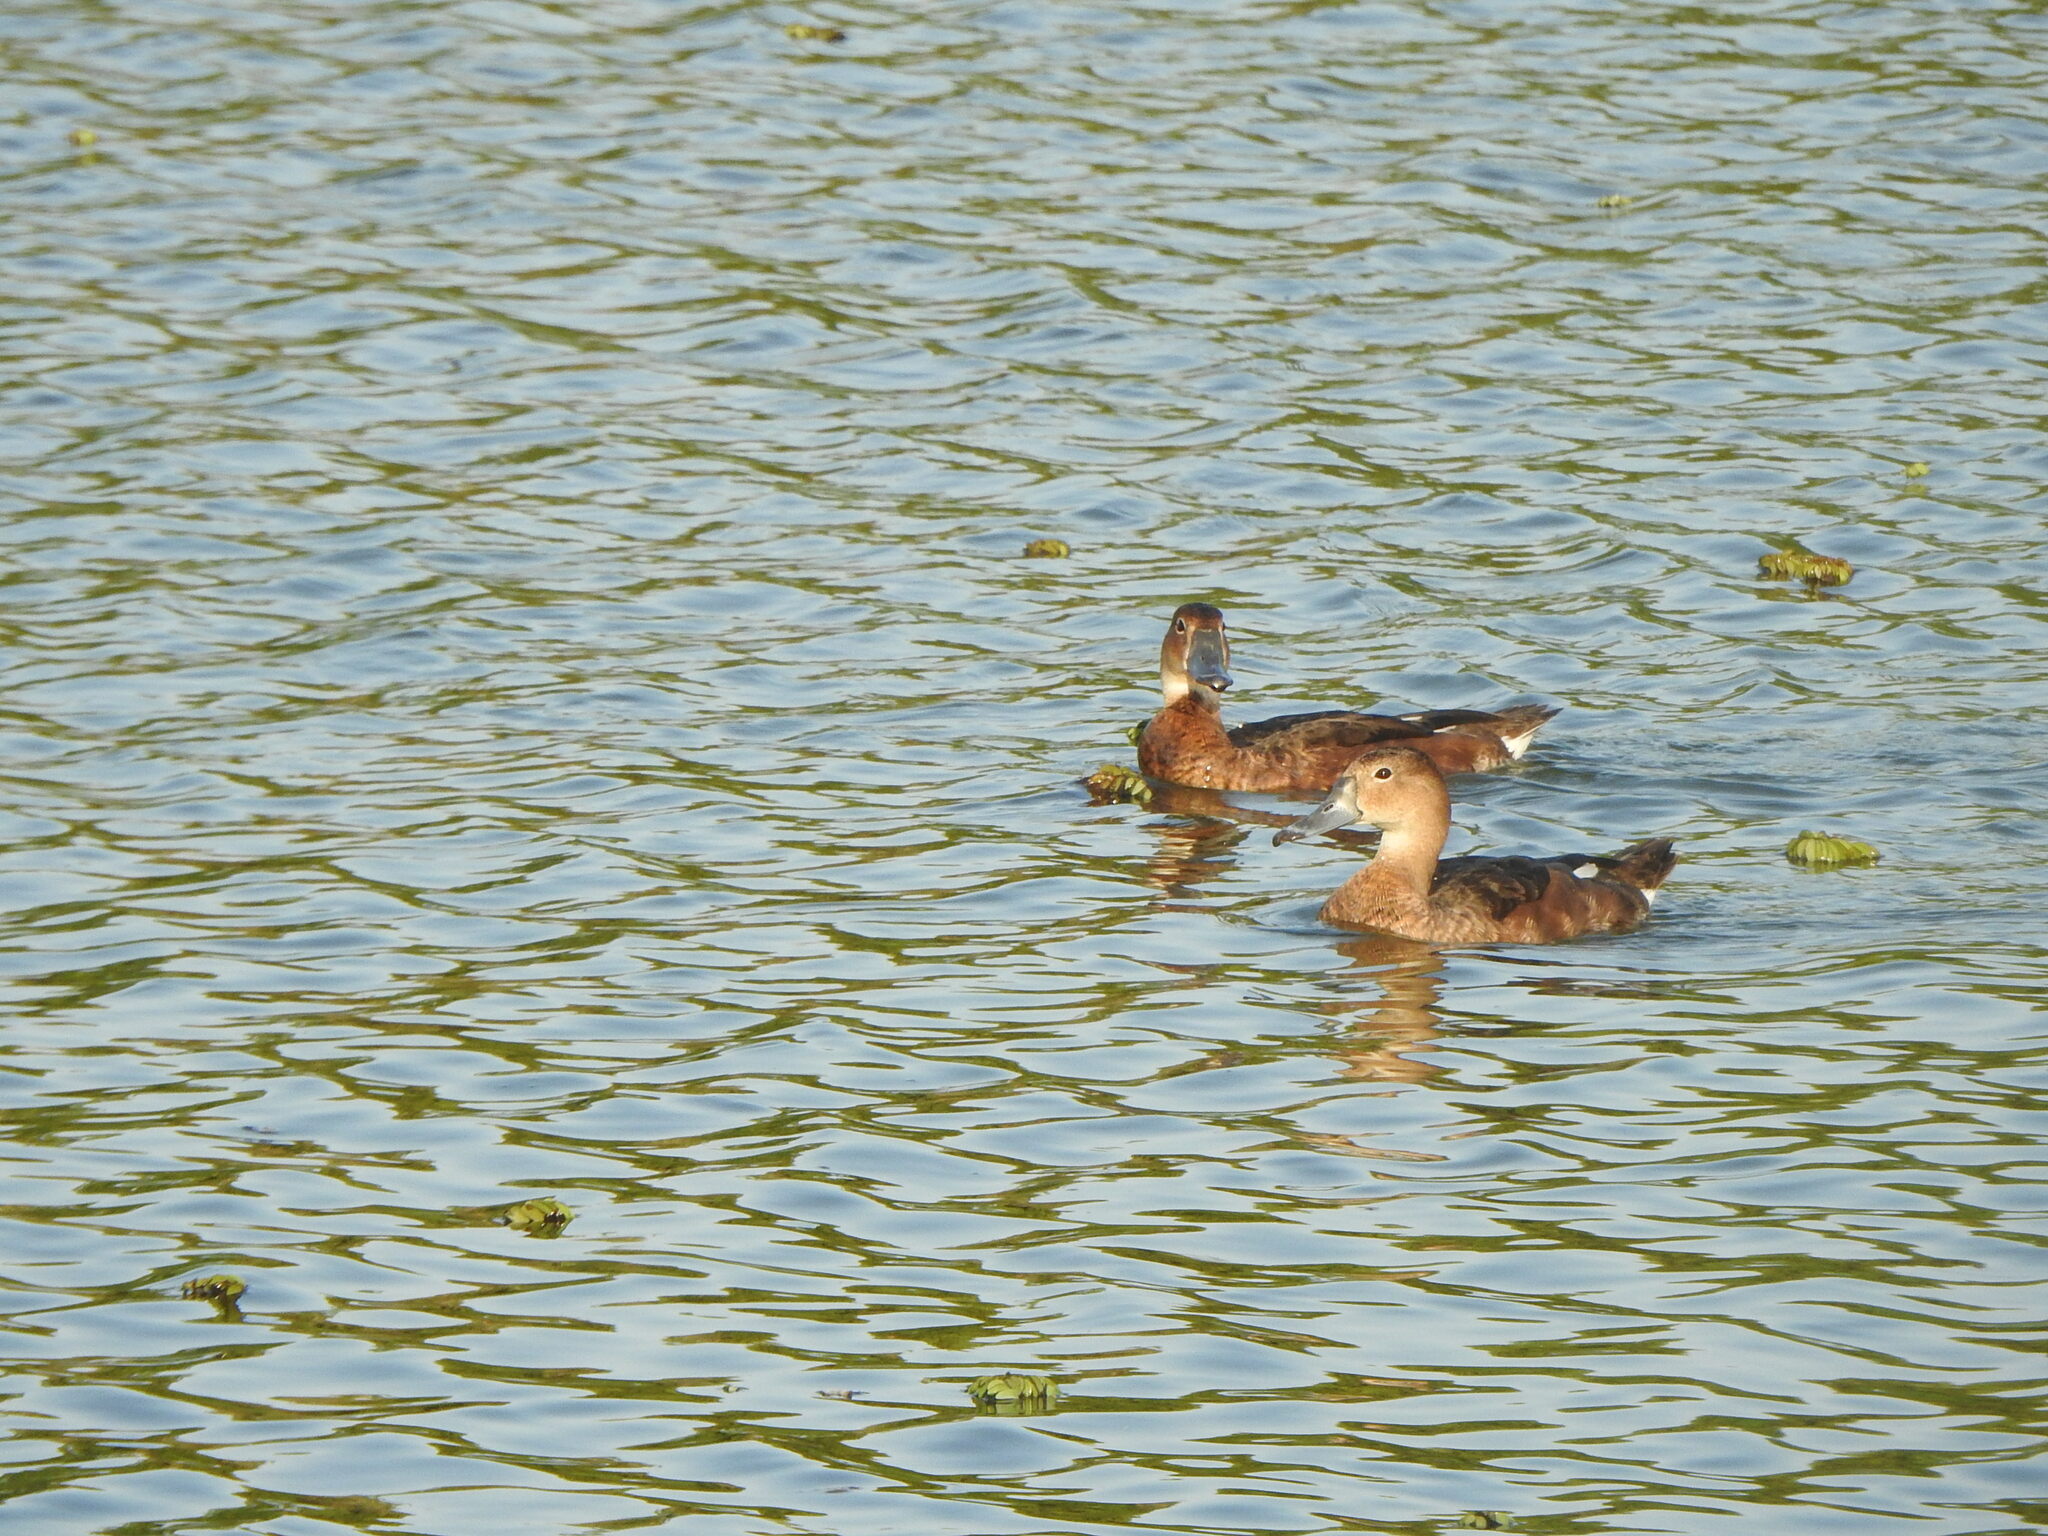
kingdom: Animalia
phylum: Chordata
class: Aves
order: Anseriformes
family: Anatidae
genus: Netta
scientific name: Netta peposaca
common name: Rosy-billed pochard
